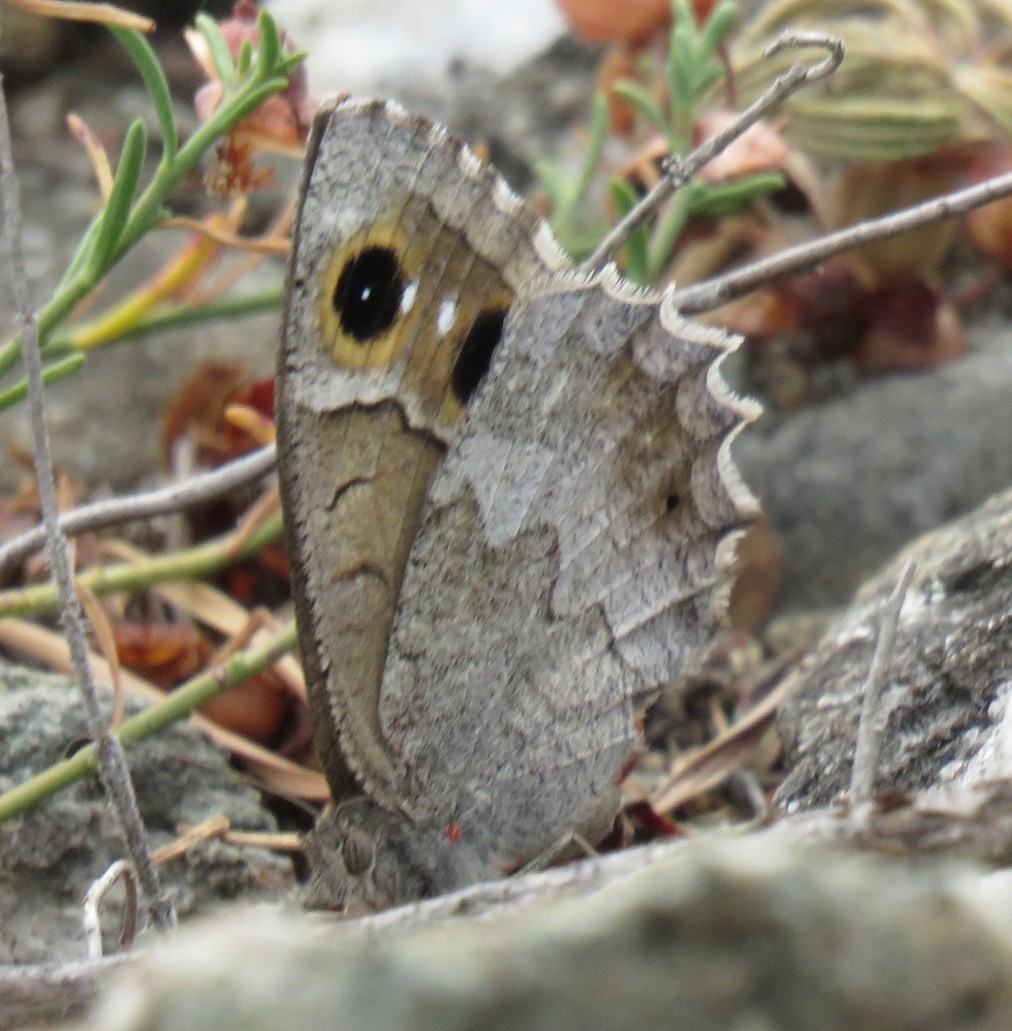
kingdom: Animalia
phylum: Arthropoda
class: Insecta
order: Lepidoptera
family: Nymphalidae
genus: Hipparchia
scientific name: Hipparchia statilinus
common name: Tree grayling
